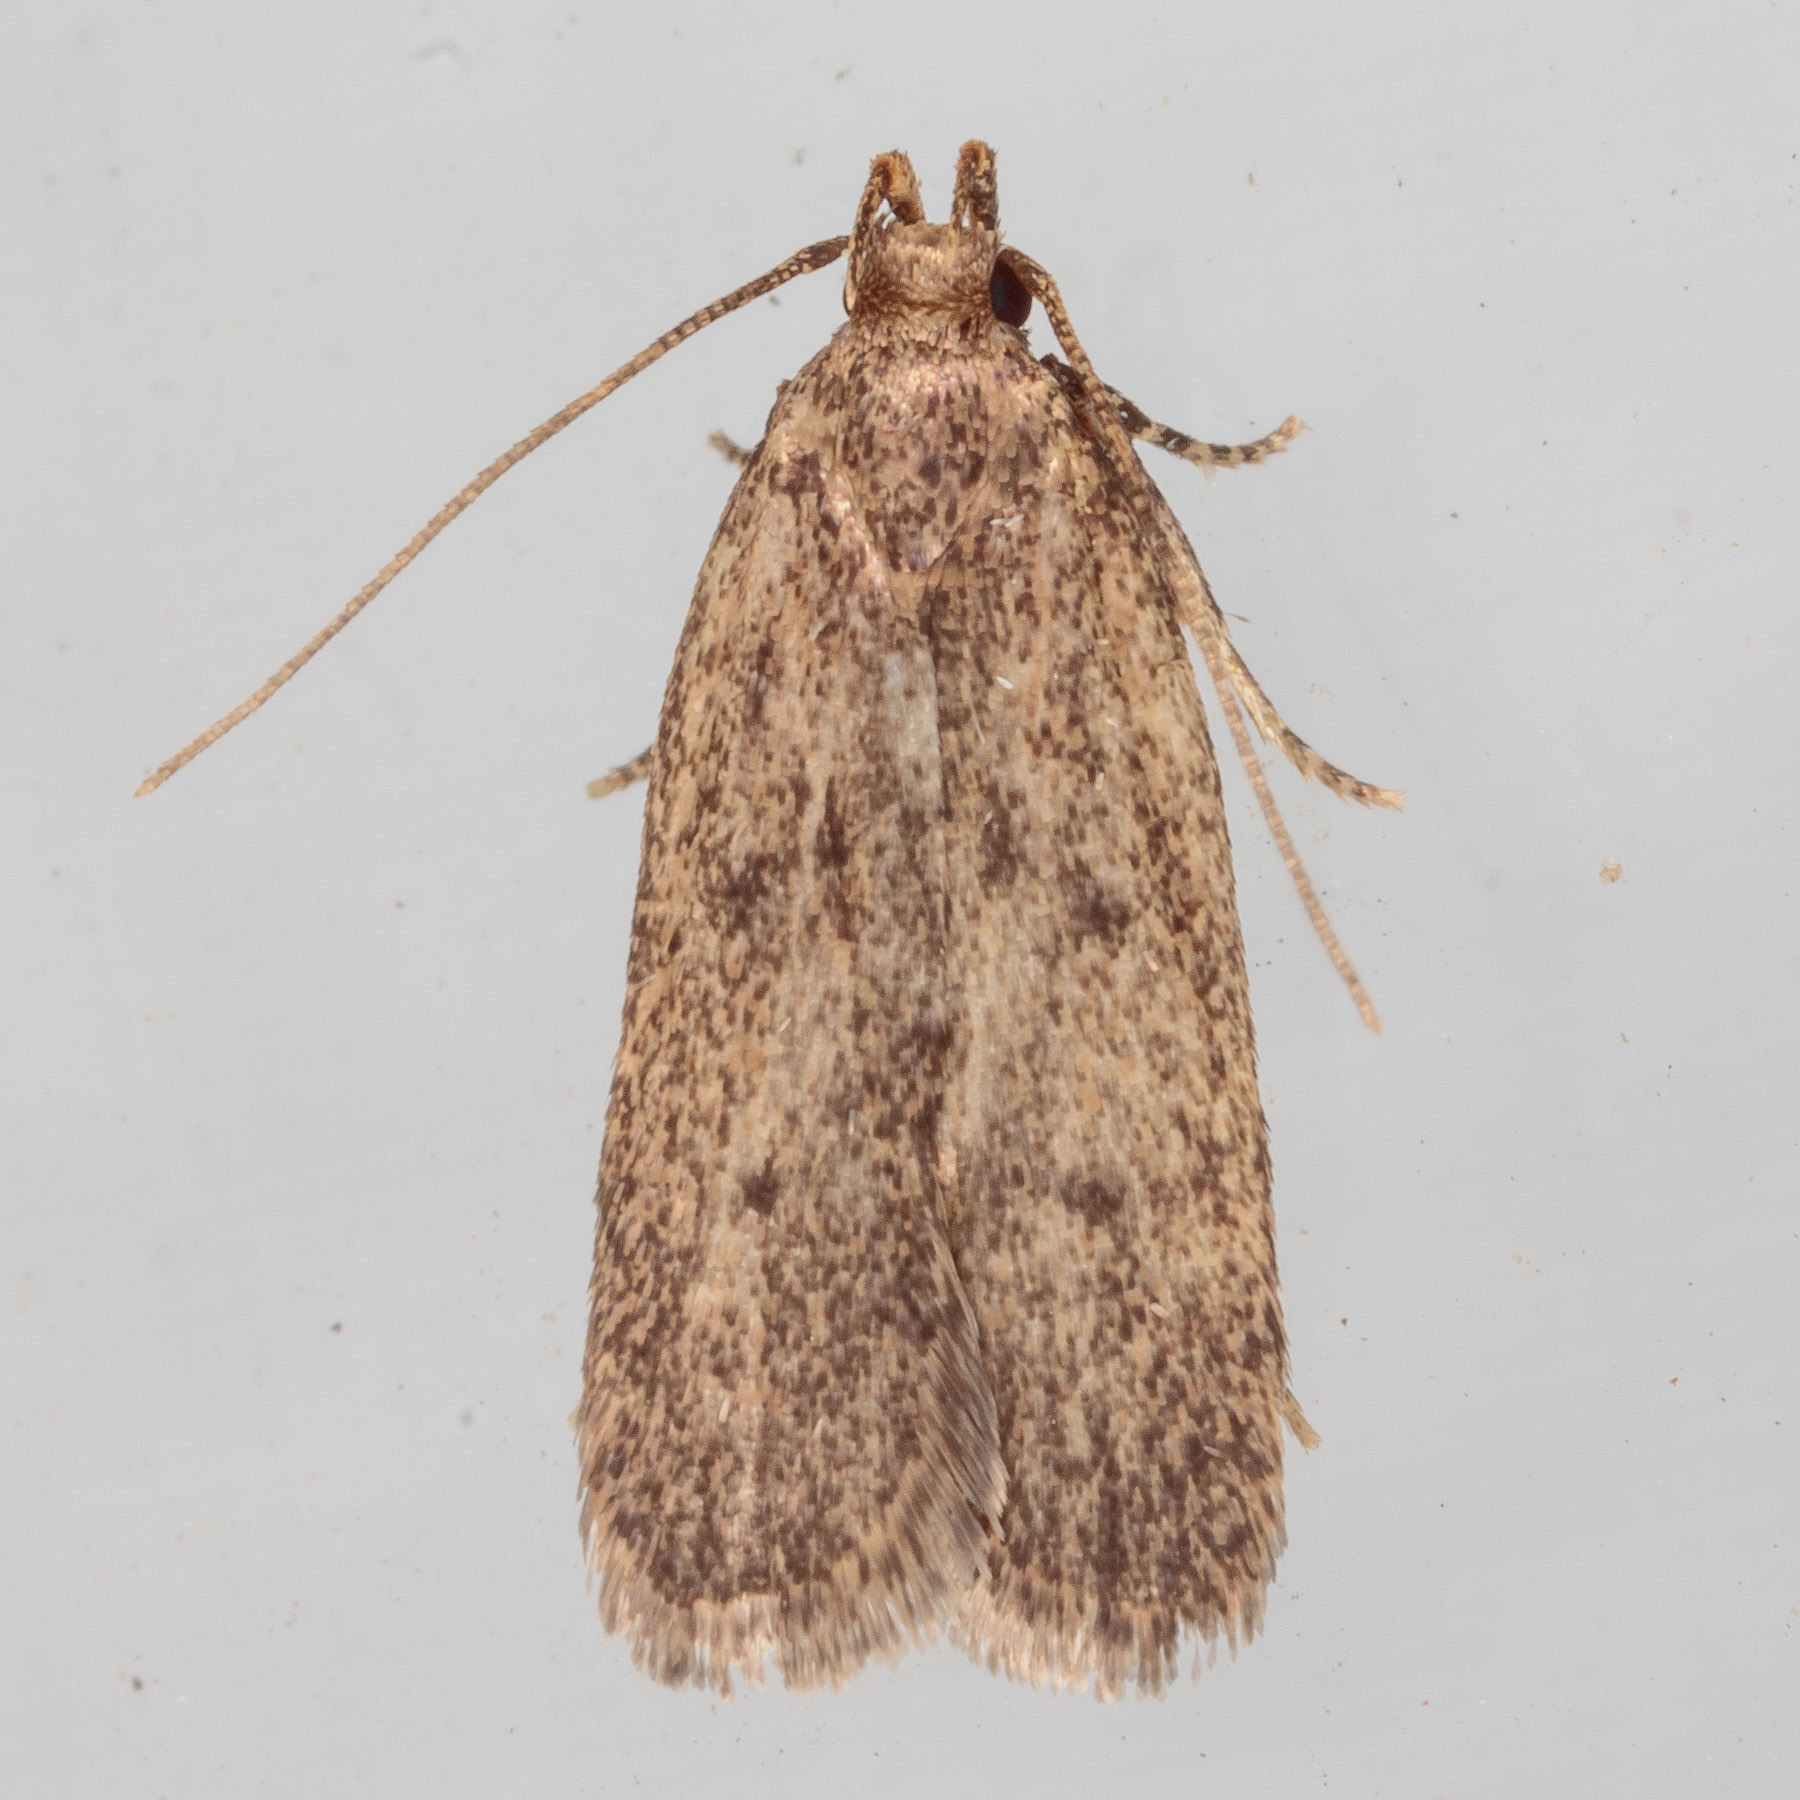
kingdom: Animalia
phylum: Arthropoda
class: Insecta
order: Lepidoptera
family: Autostichidae
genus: Glyphidocera
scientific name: Glyphidocera juniperella
